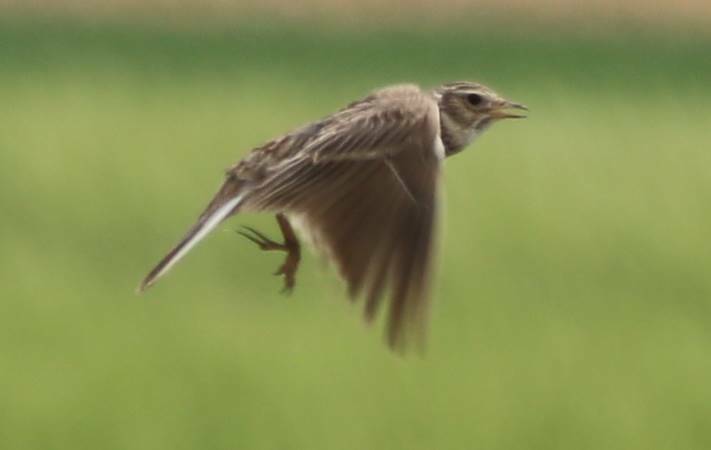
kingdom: Animalia
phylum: Chordata
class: Aves
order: Passeriformes
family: Alaudidae
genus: Alauda
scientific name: Alauda arvensis
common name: Eurasian skylark
